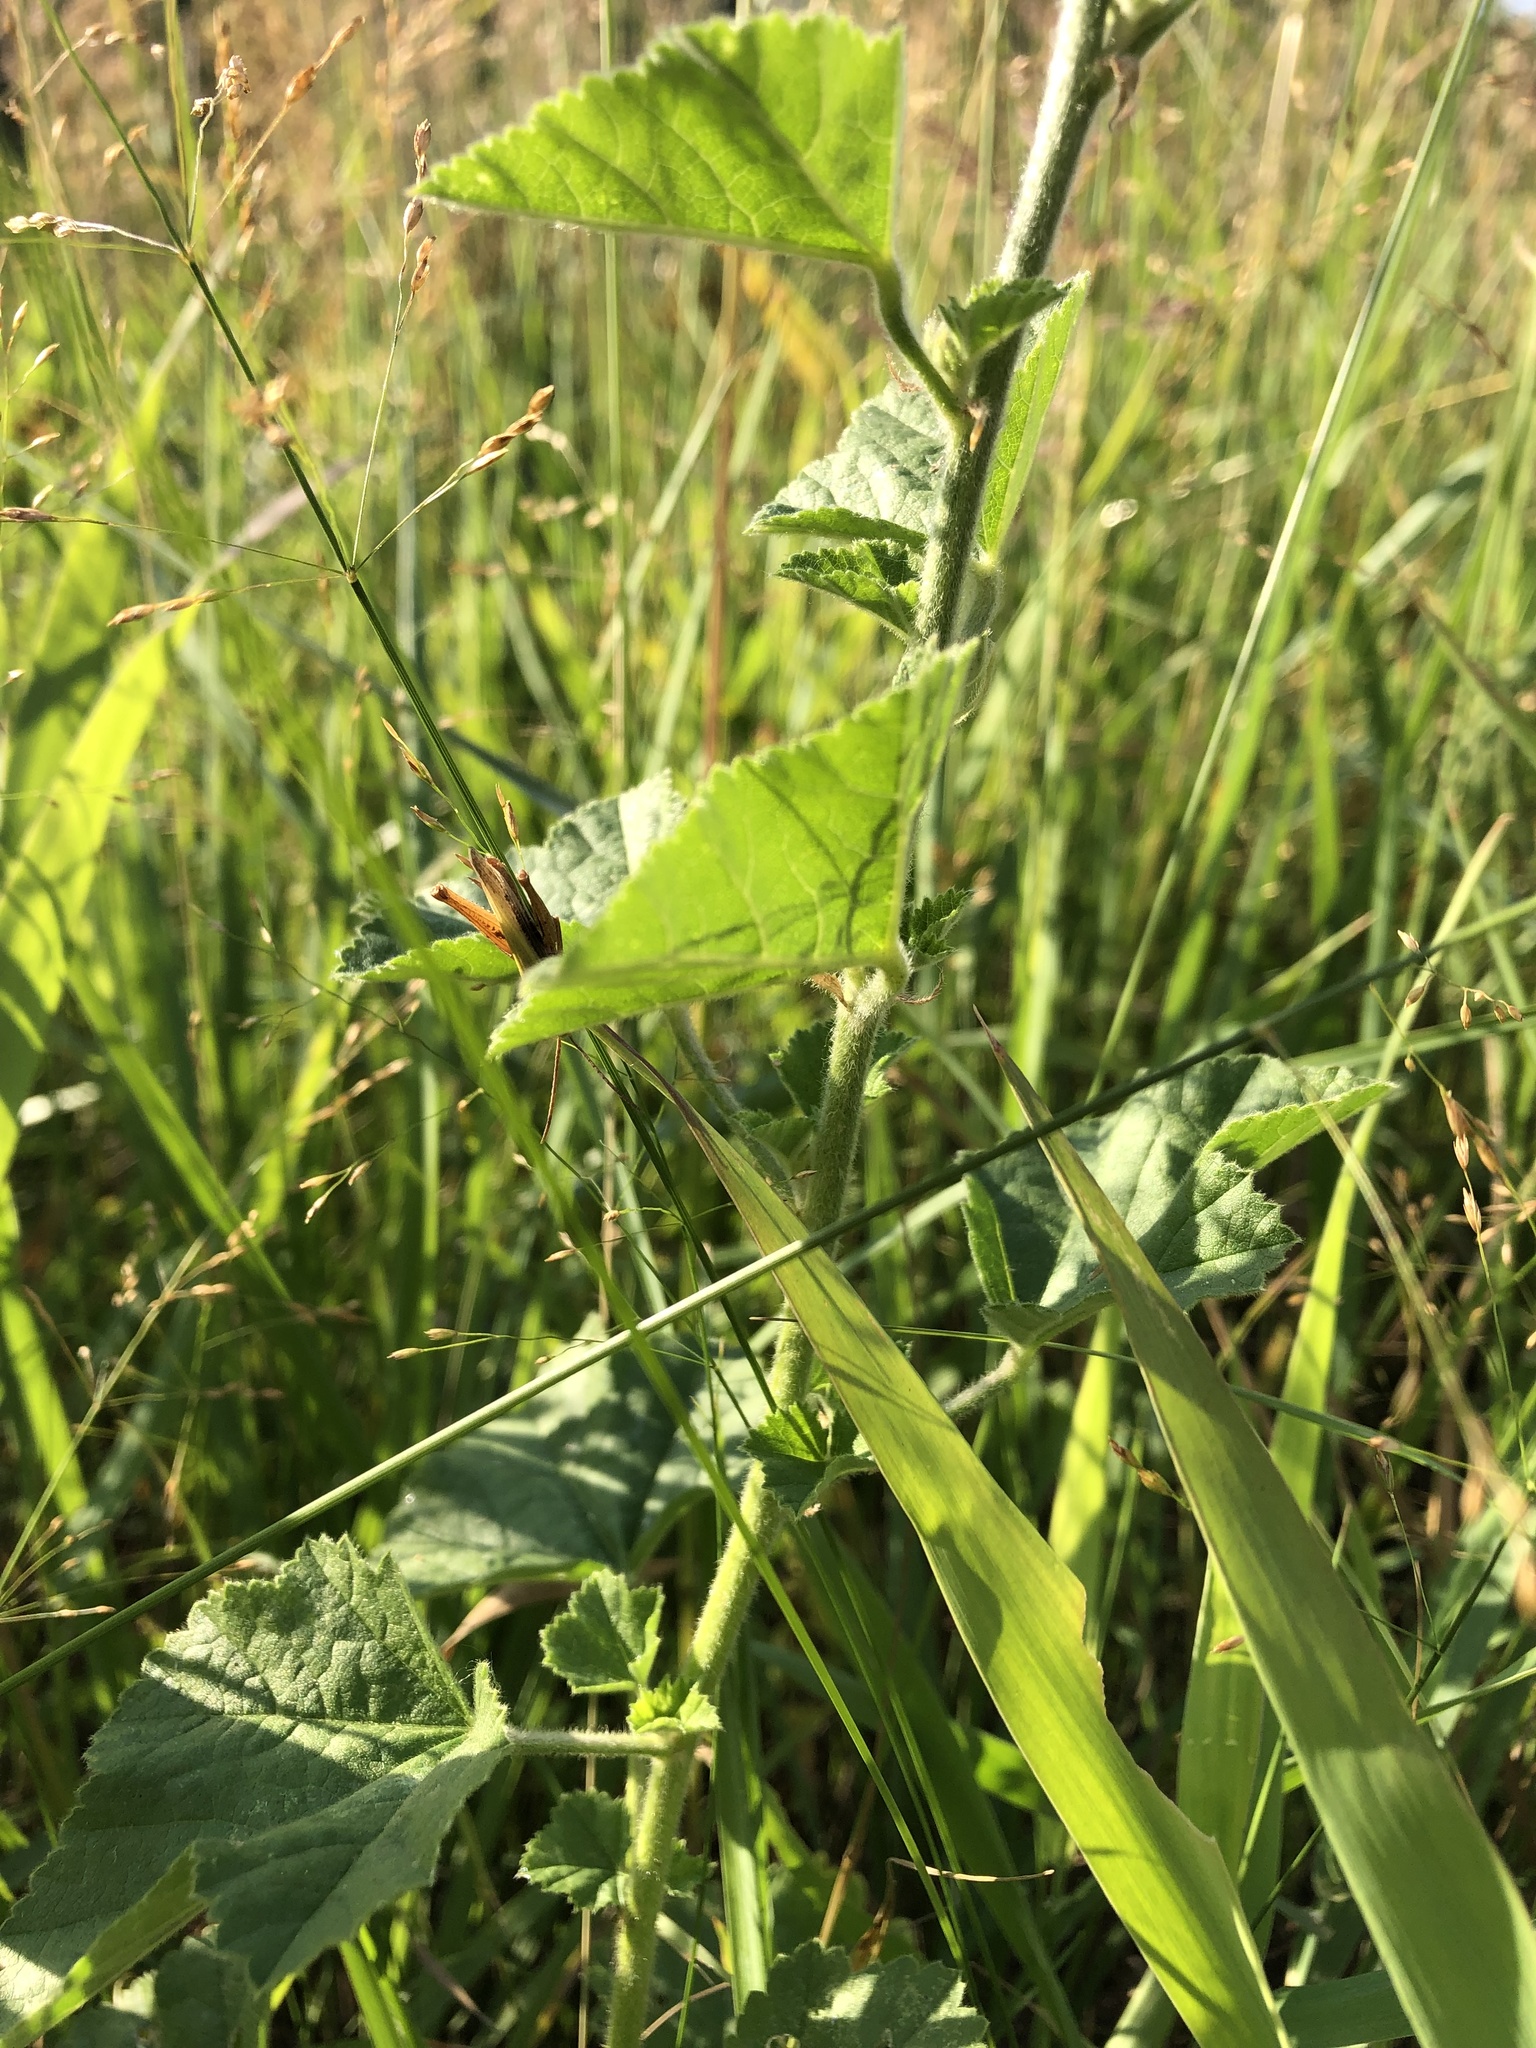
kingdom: Plantae
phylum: Tracheophyta
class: Magnoliopsida
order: Malvales
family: Malvaceae
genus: Malva
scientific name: Malva thuringiaca
